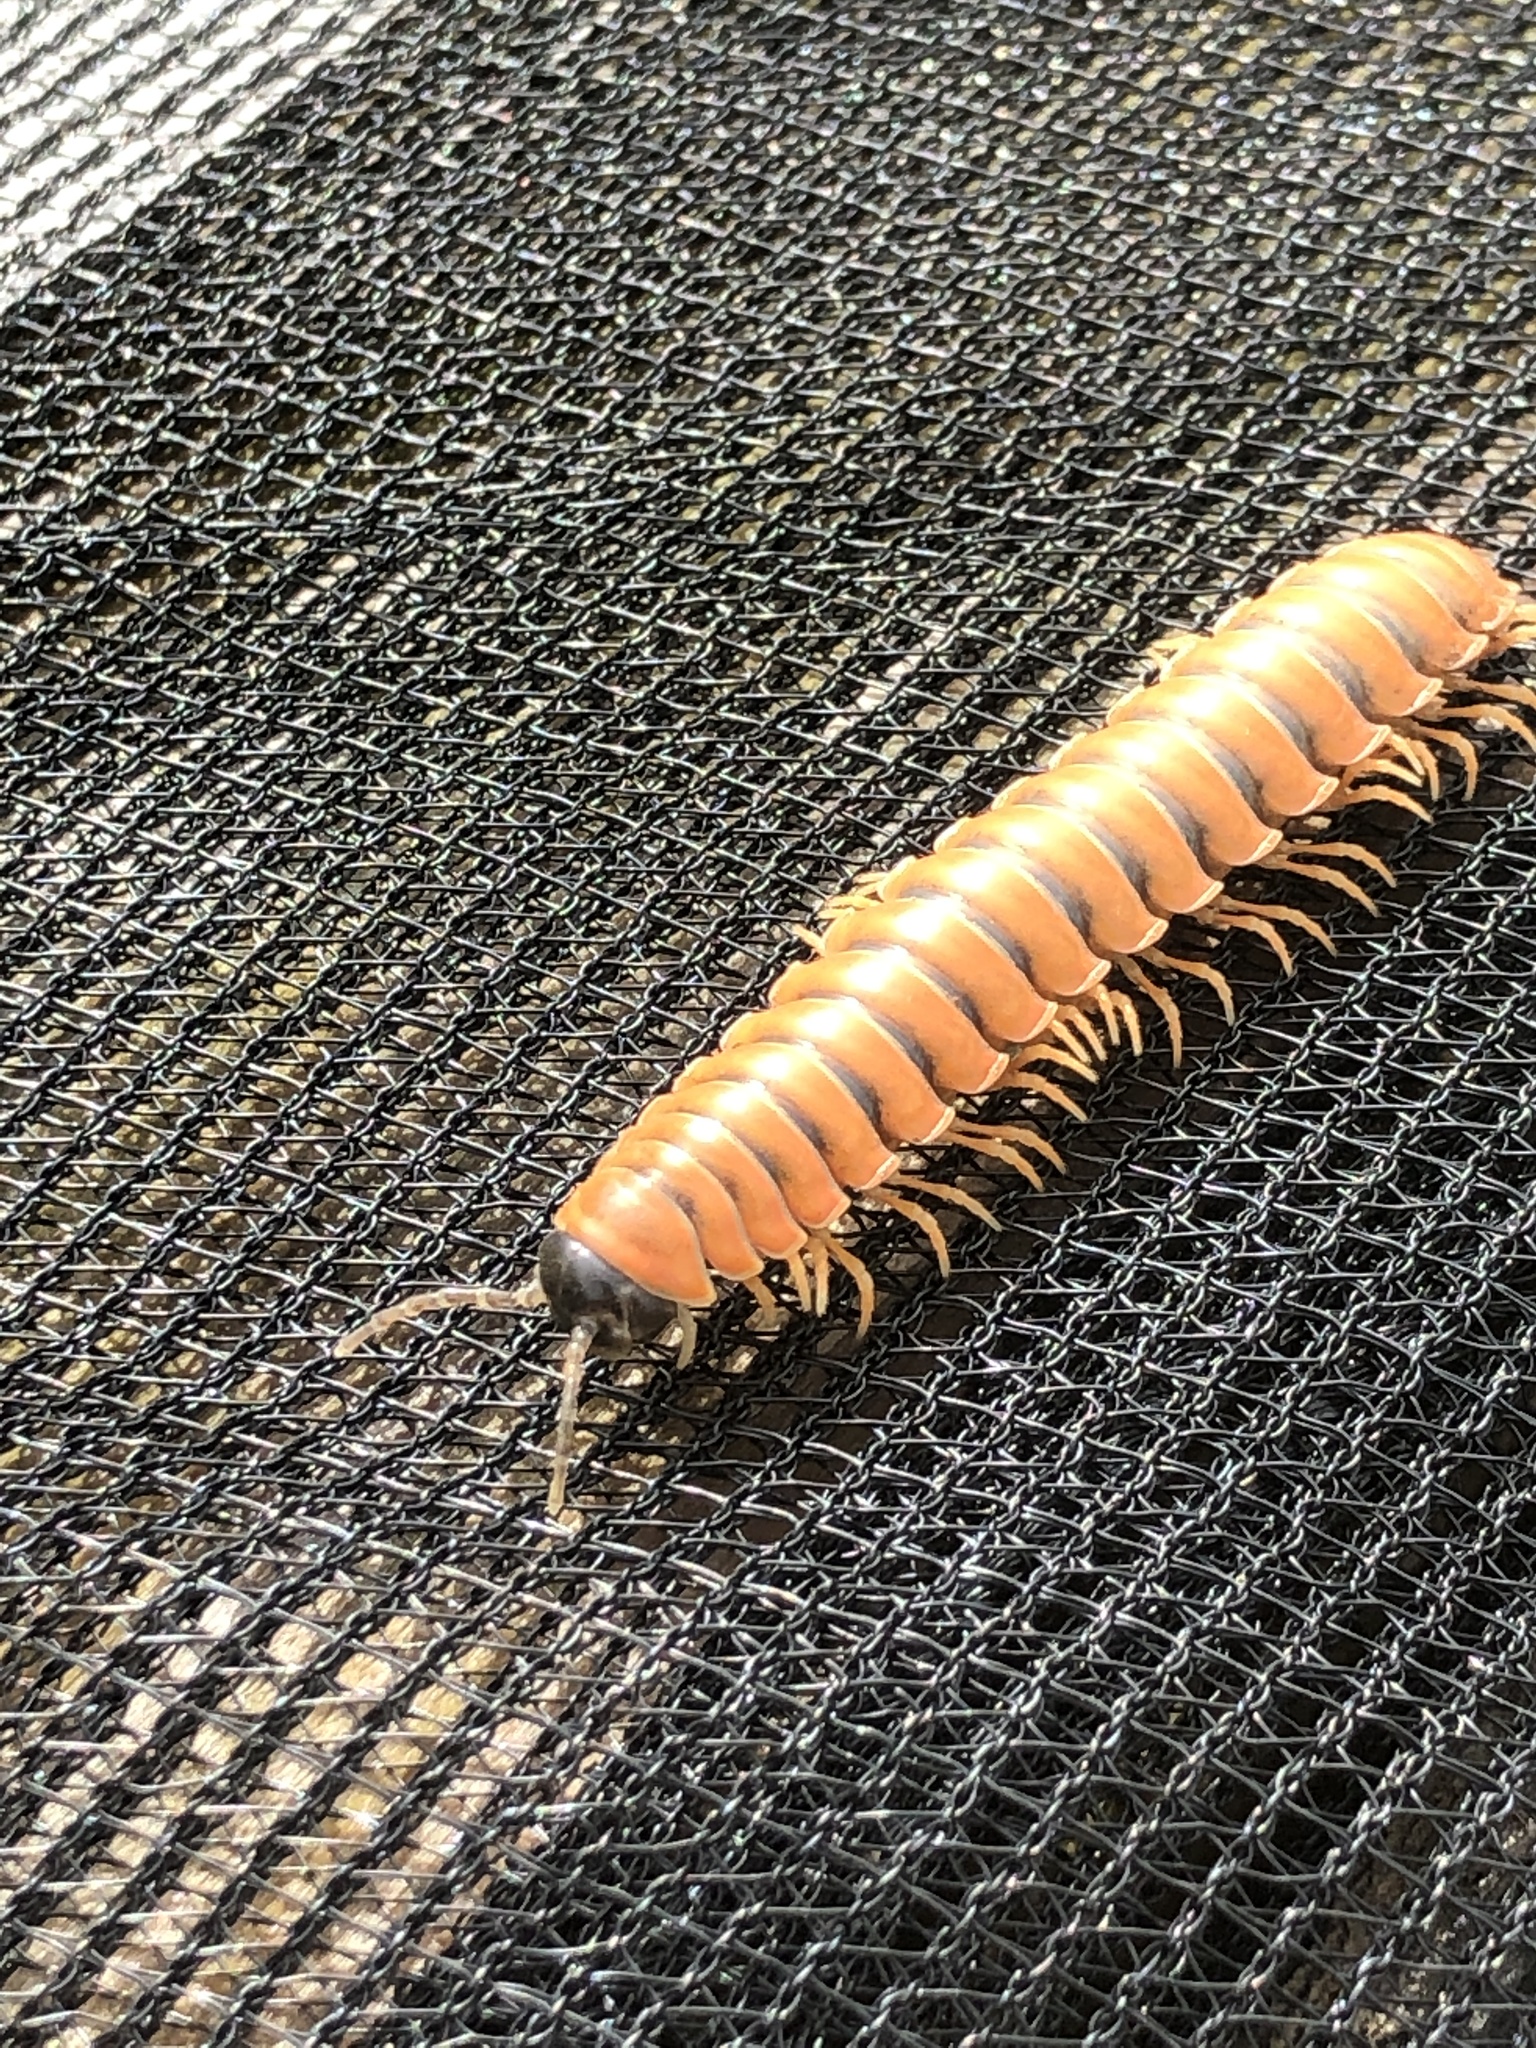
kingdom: Animalia
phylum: Arthropoda
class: Diplopoda
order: Polydesmida
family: Xystodesmidae
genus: Riukiaria
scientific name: Riukiaria pugionifera
